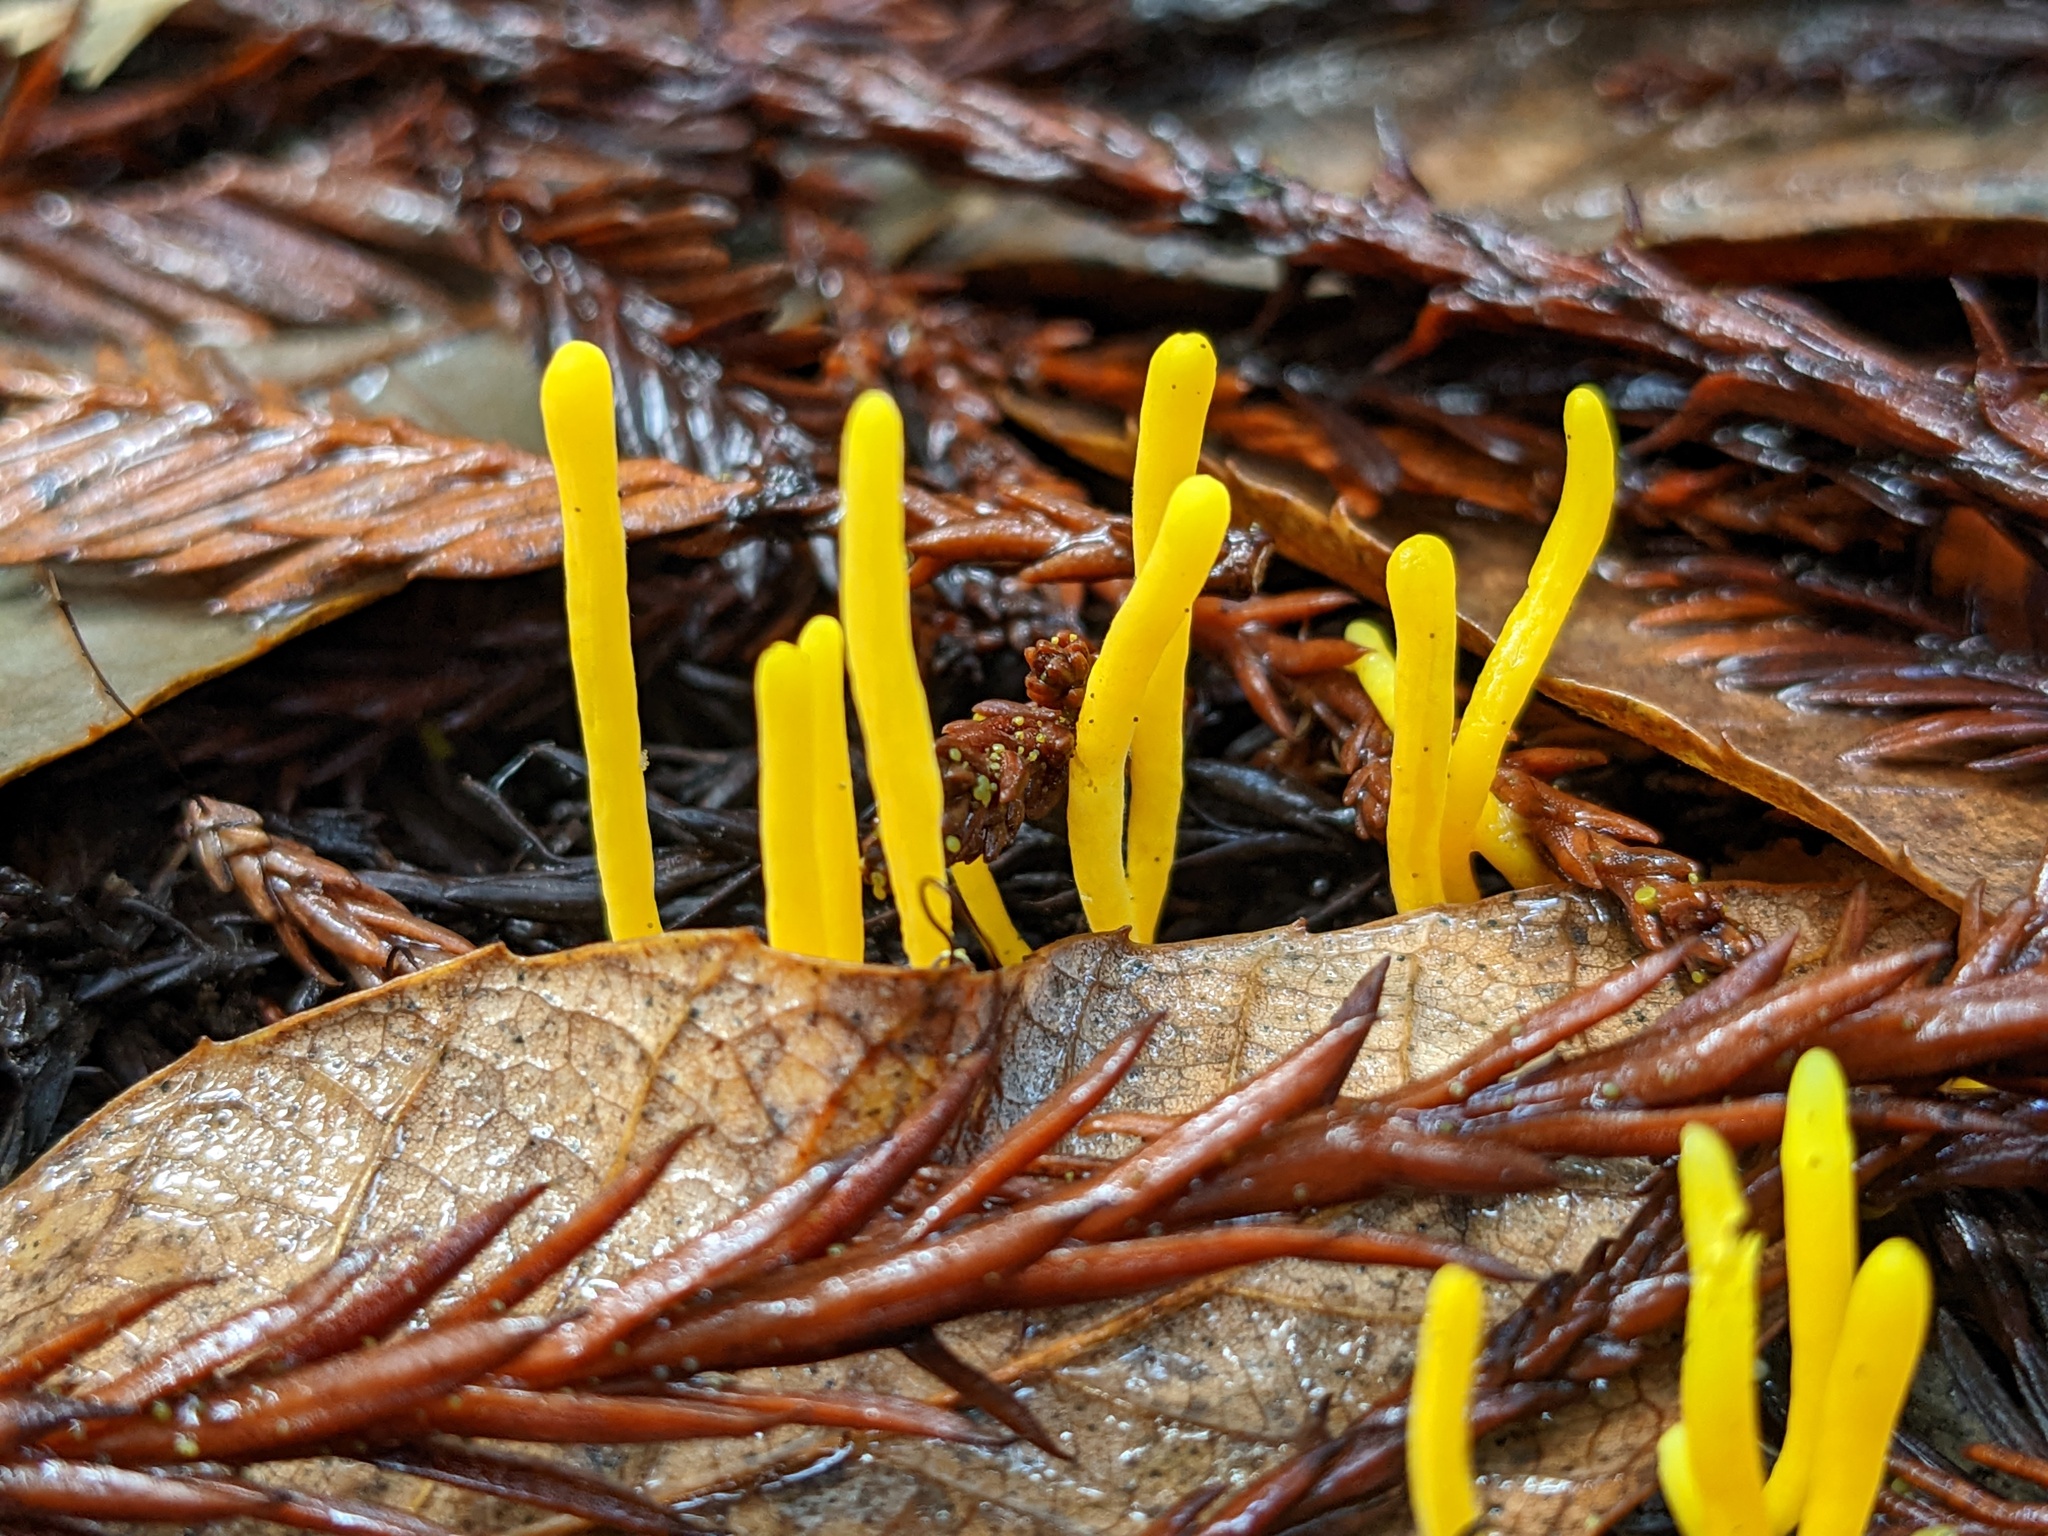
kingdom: Fungi
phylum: Basidiomycota
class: Agaricomycetes
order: Agaricales
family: Clavariaceae
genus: Clavulinopsis
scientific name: Clavulinopsis laeticolor
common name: Handsome club
